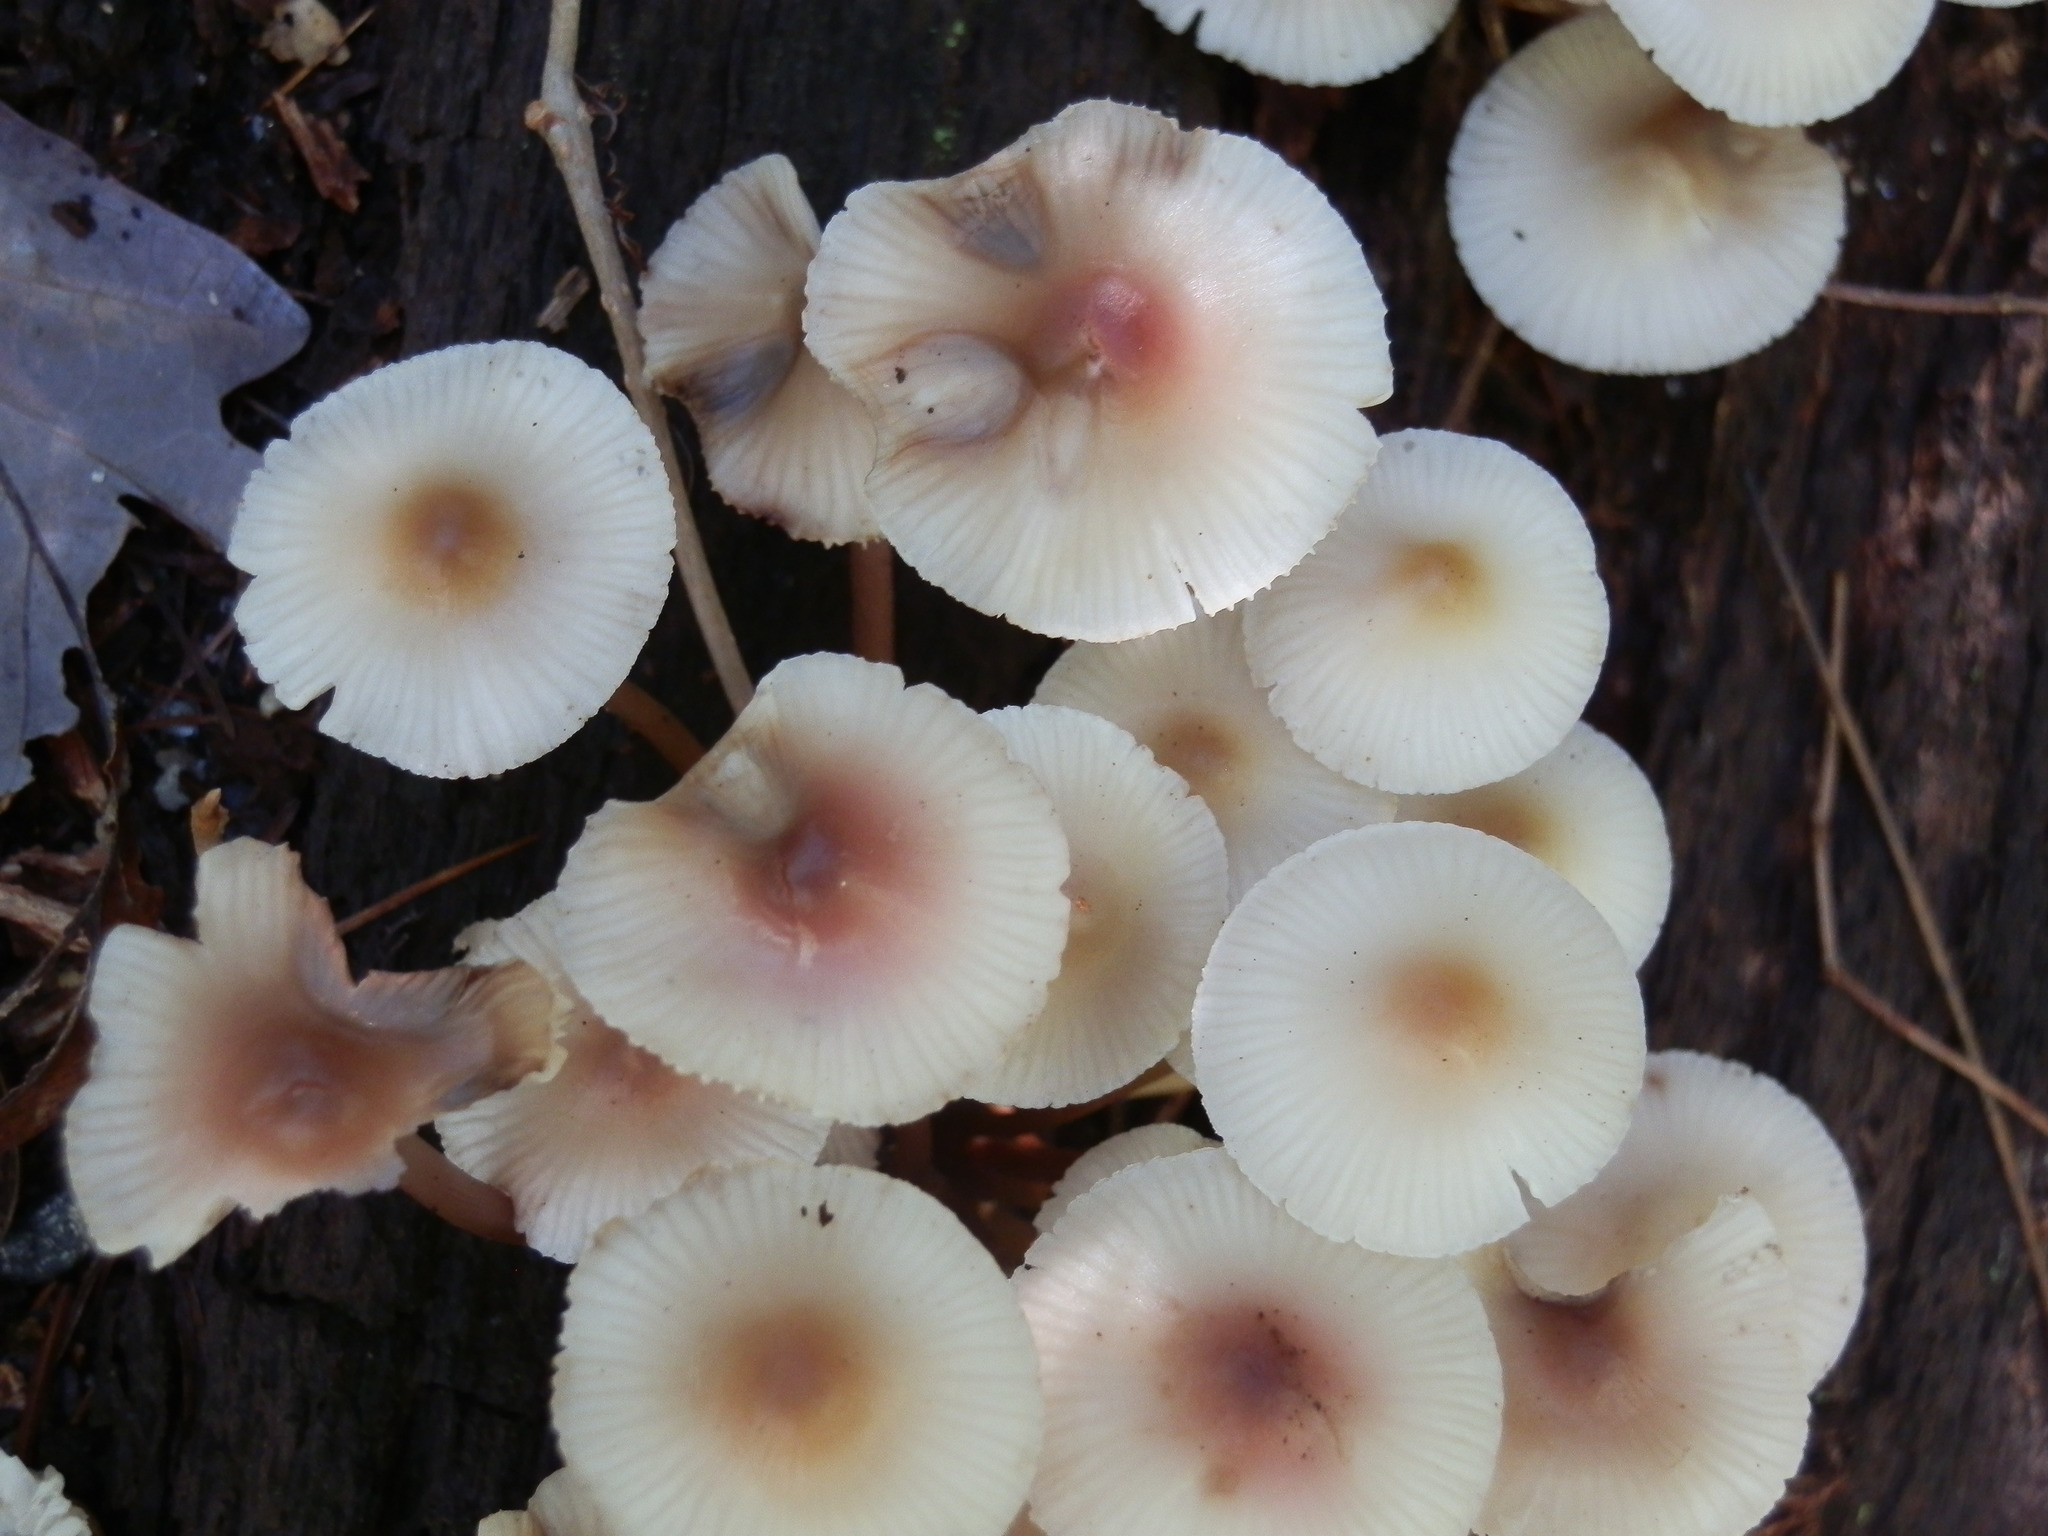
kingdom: Fungi
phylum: Basidiomycota
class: Agaricomycetes
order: Agaricales
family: Mycenaceae
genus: Mycena
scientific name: Mycena haematopus
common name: Burgundydrop bonnet
